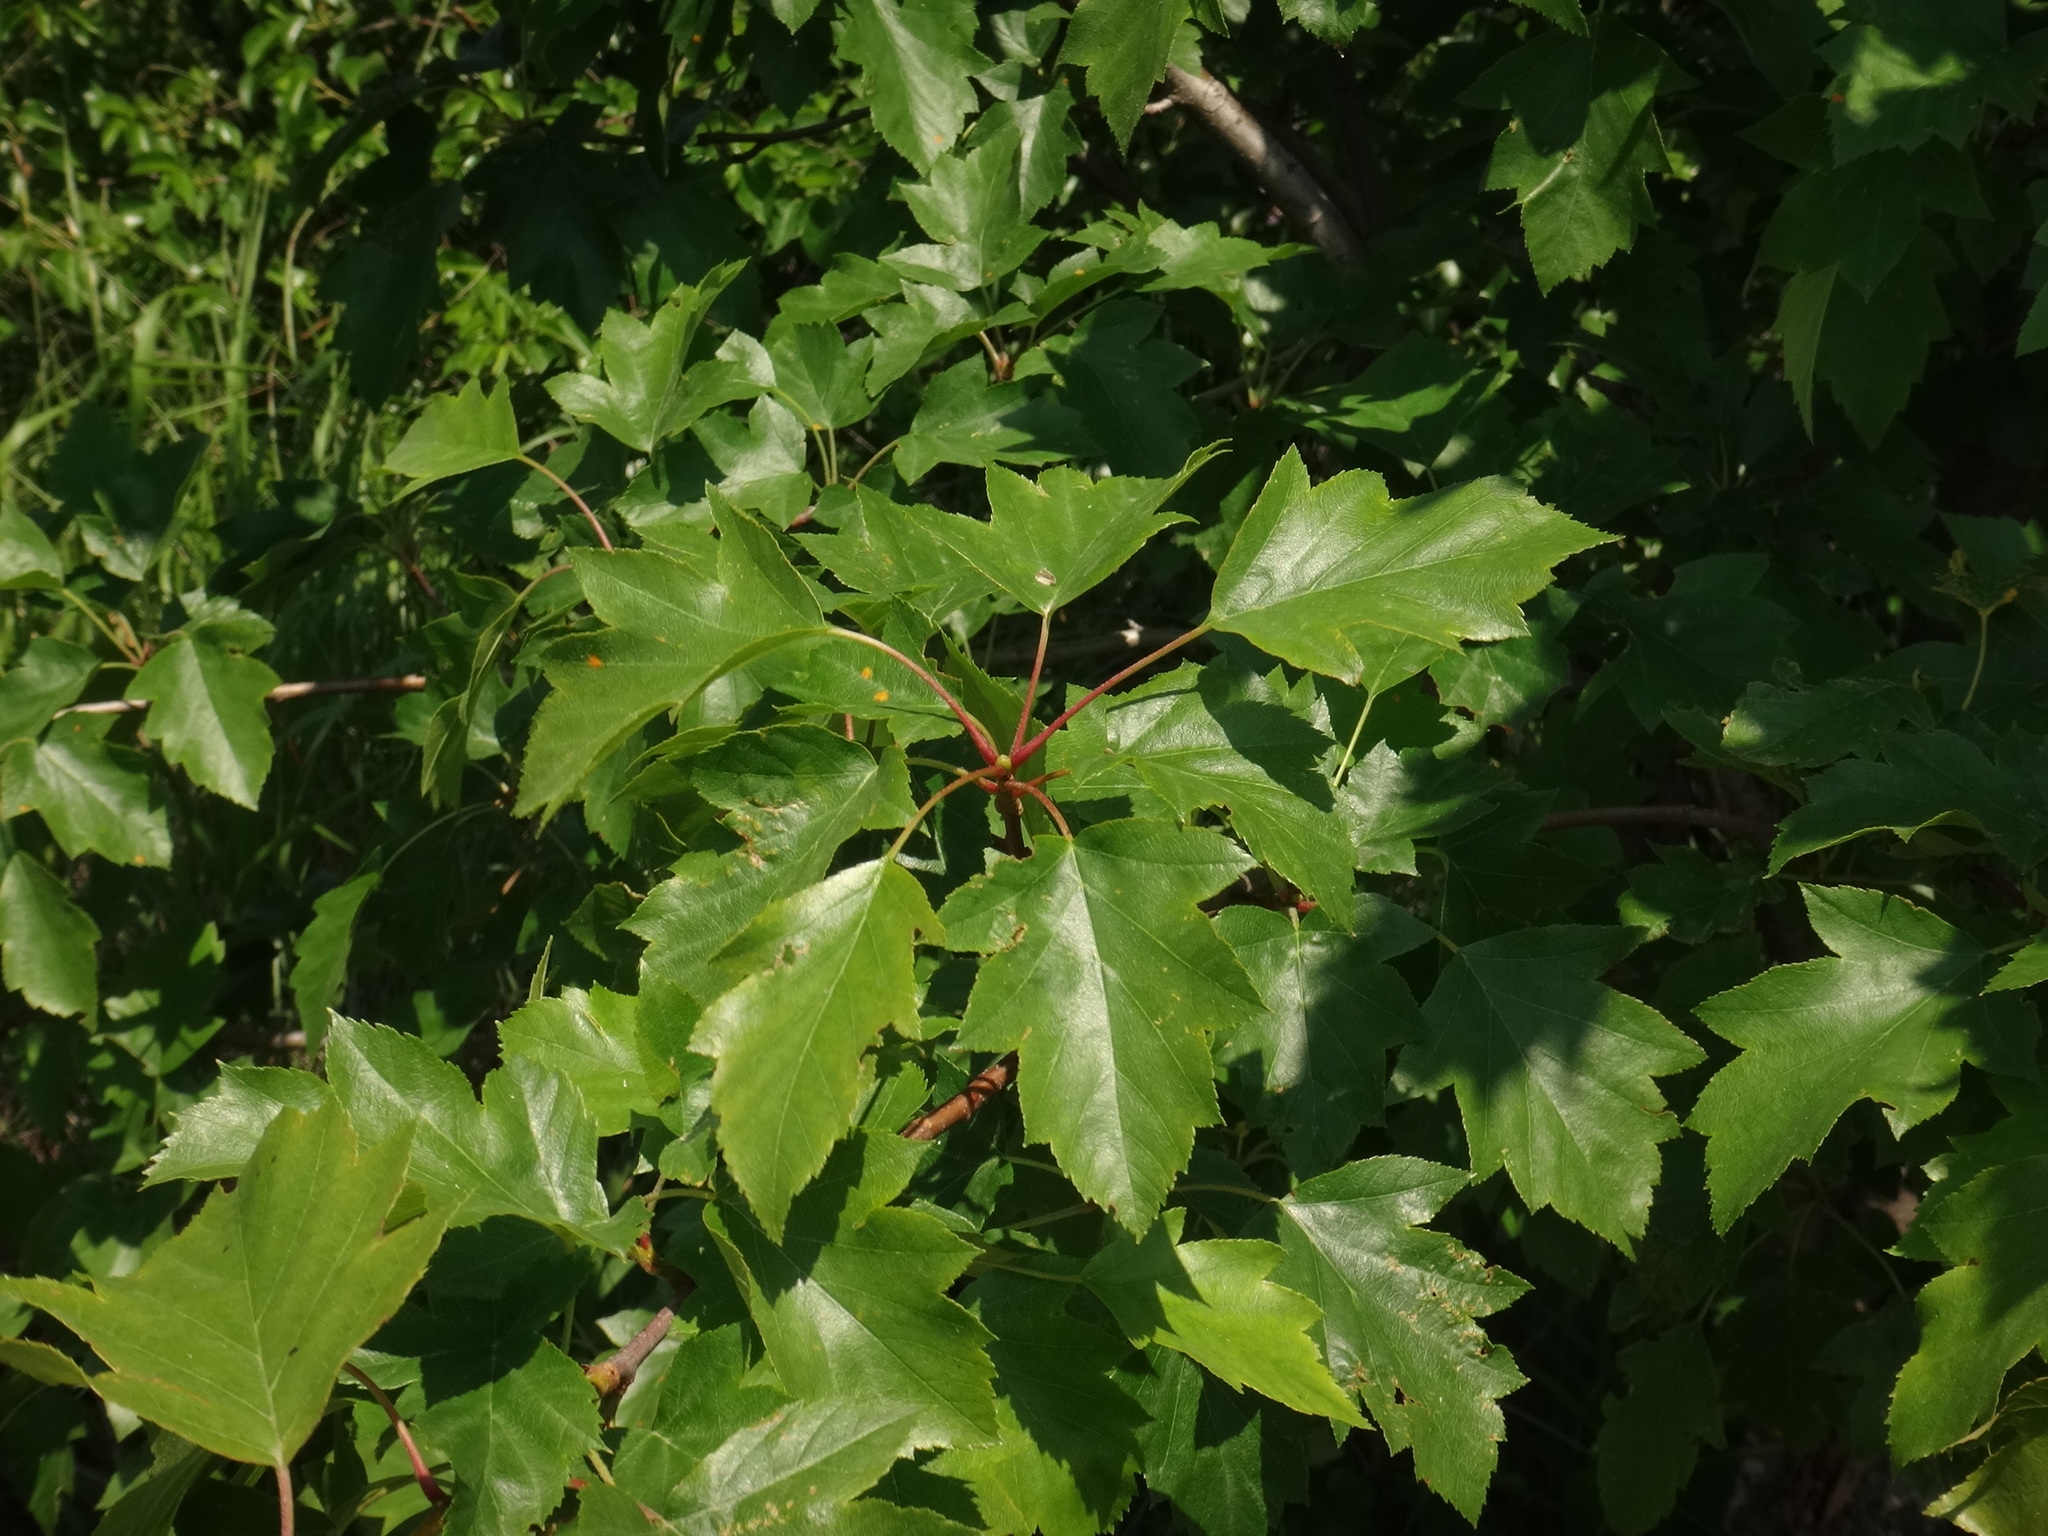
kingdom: Plantae
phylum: Tracheophyta
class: Magnoliopsida
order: Rosales
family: Rosaceae
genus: Torminalis
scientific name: Torminalis glaberrima
